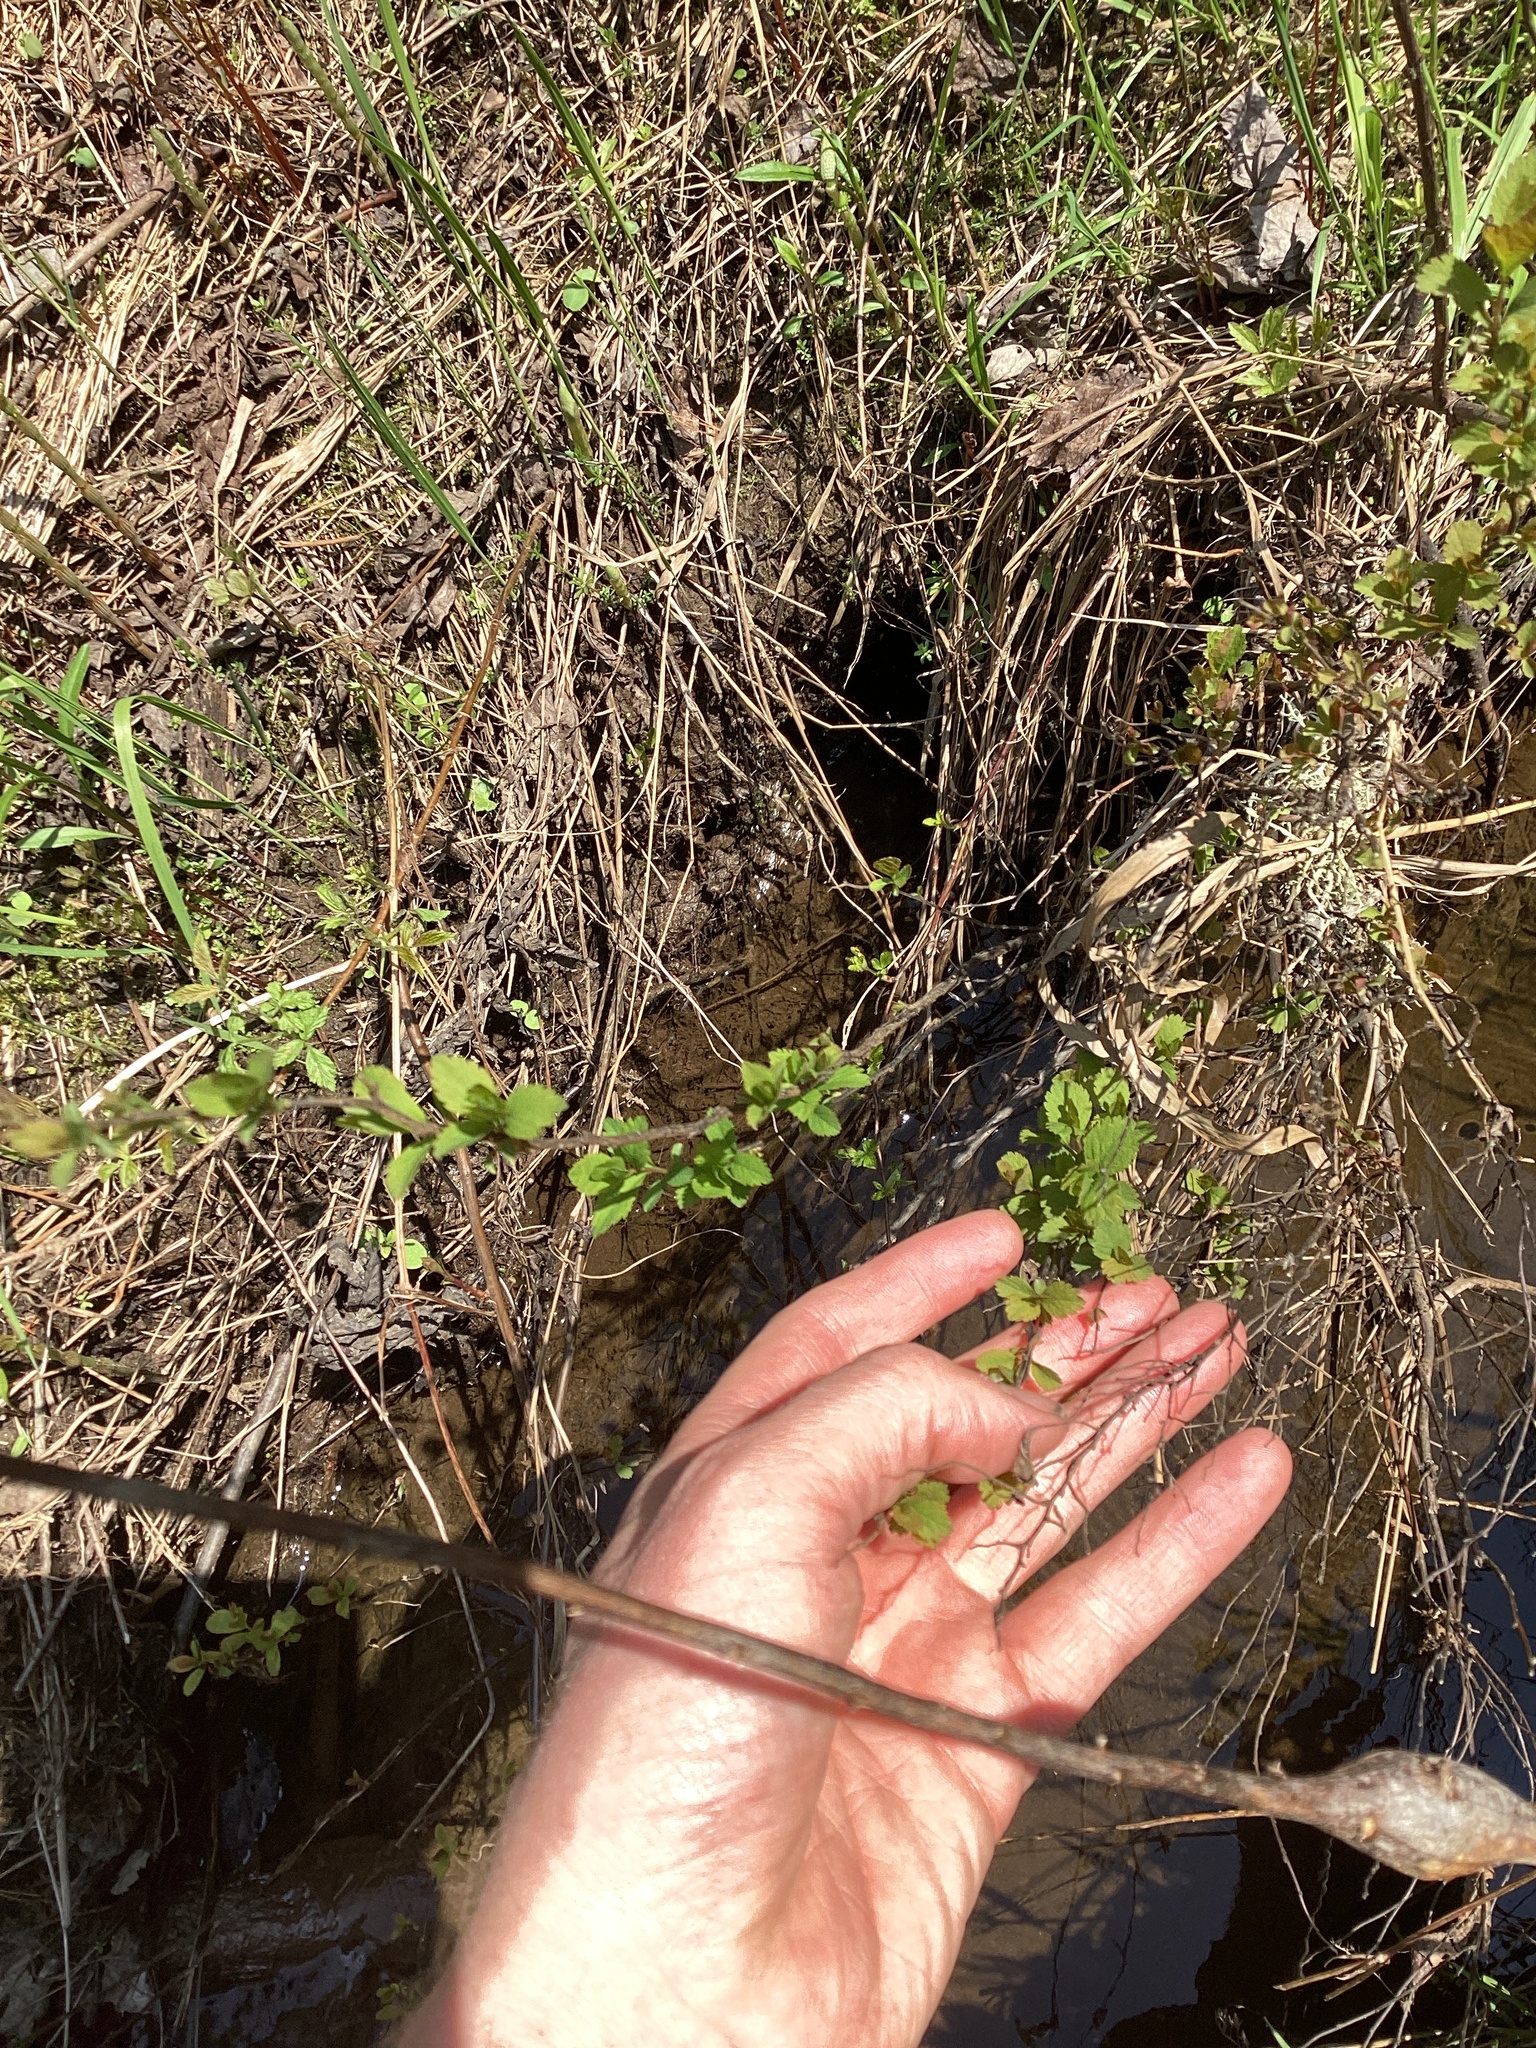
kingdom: Plantae
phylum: Tracheophyta
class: Magnoliopsida
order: Rosales
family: Rosaceae
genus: Spiraea
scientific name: Spiraea alba
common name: Pale bridewort
